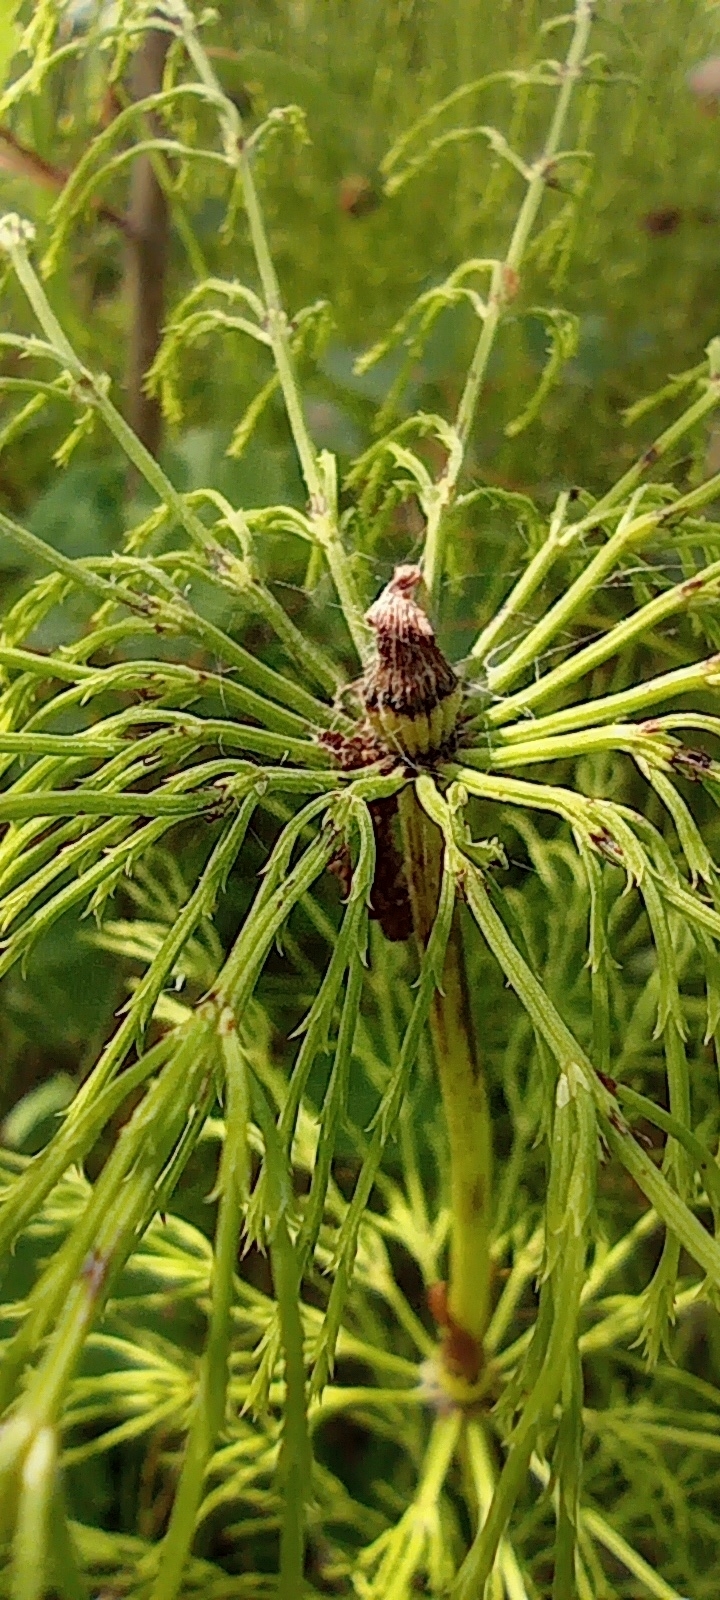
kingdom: Plantae
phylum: Tracheophyta
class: Polypodiopsida
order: Equisetales
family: Equisetaceae
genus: Equisetum
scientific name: Equisetum sylvaticum
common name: Wood horsetail
